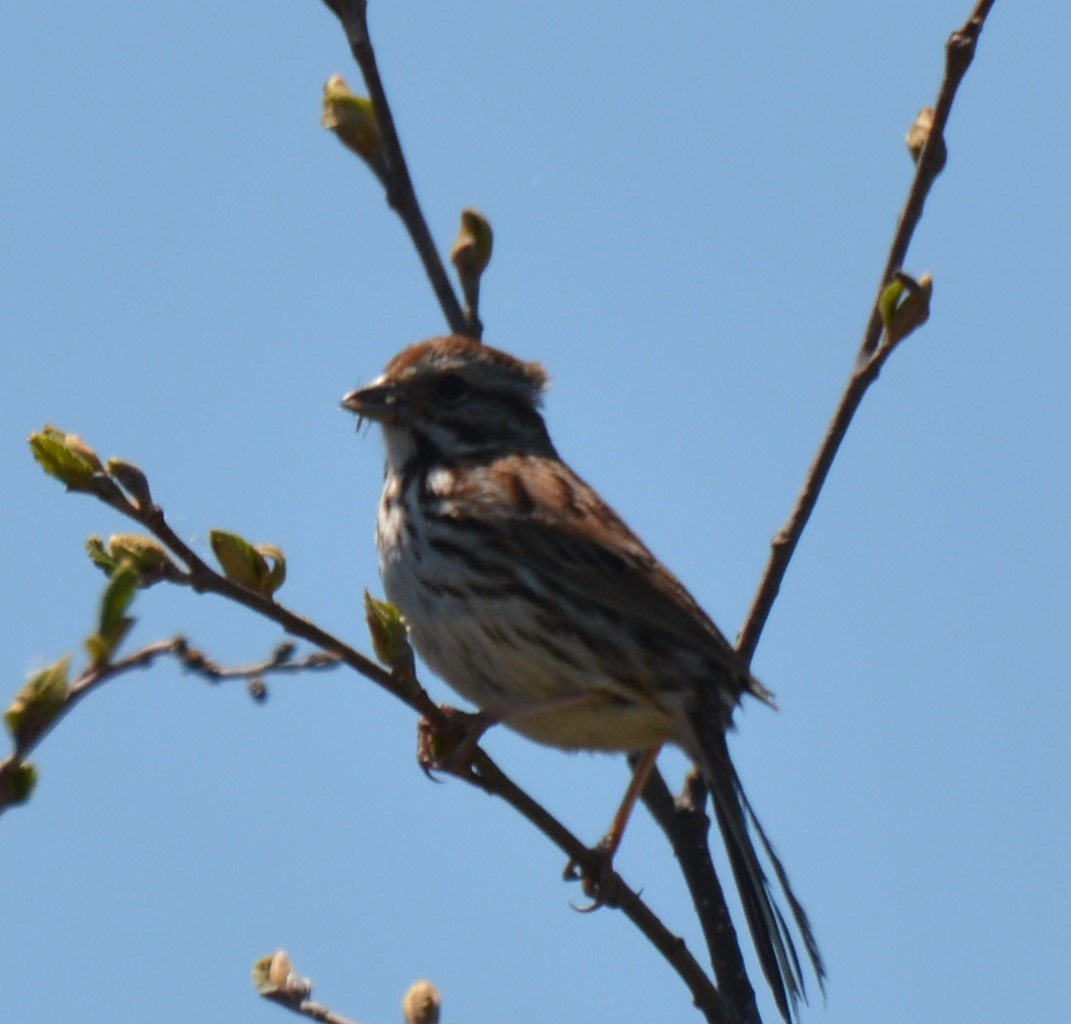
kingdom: Animalia
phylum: Chordata
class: Aves
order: Passeriformes
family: Passerellidae
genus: Melospiza
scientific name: Melospiza melodia
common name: Song sparrow
